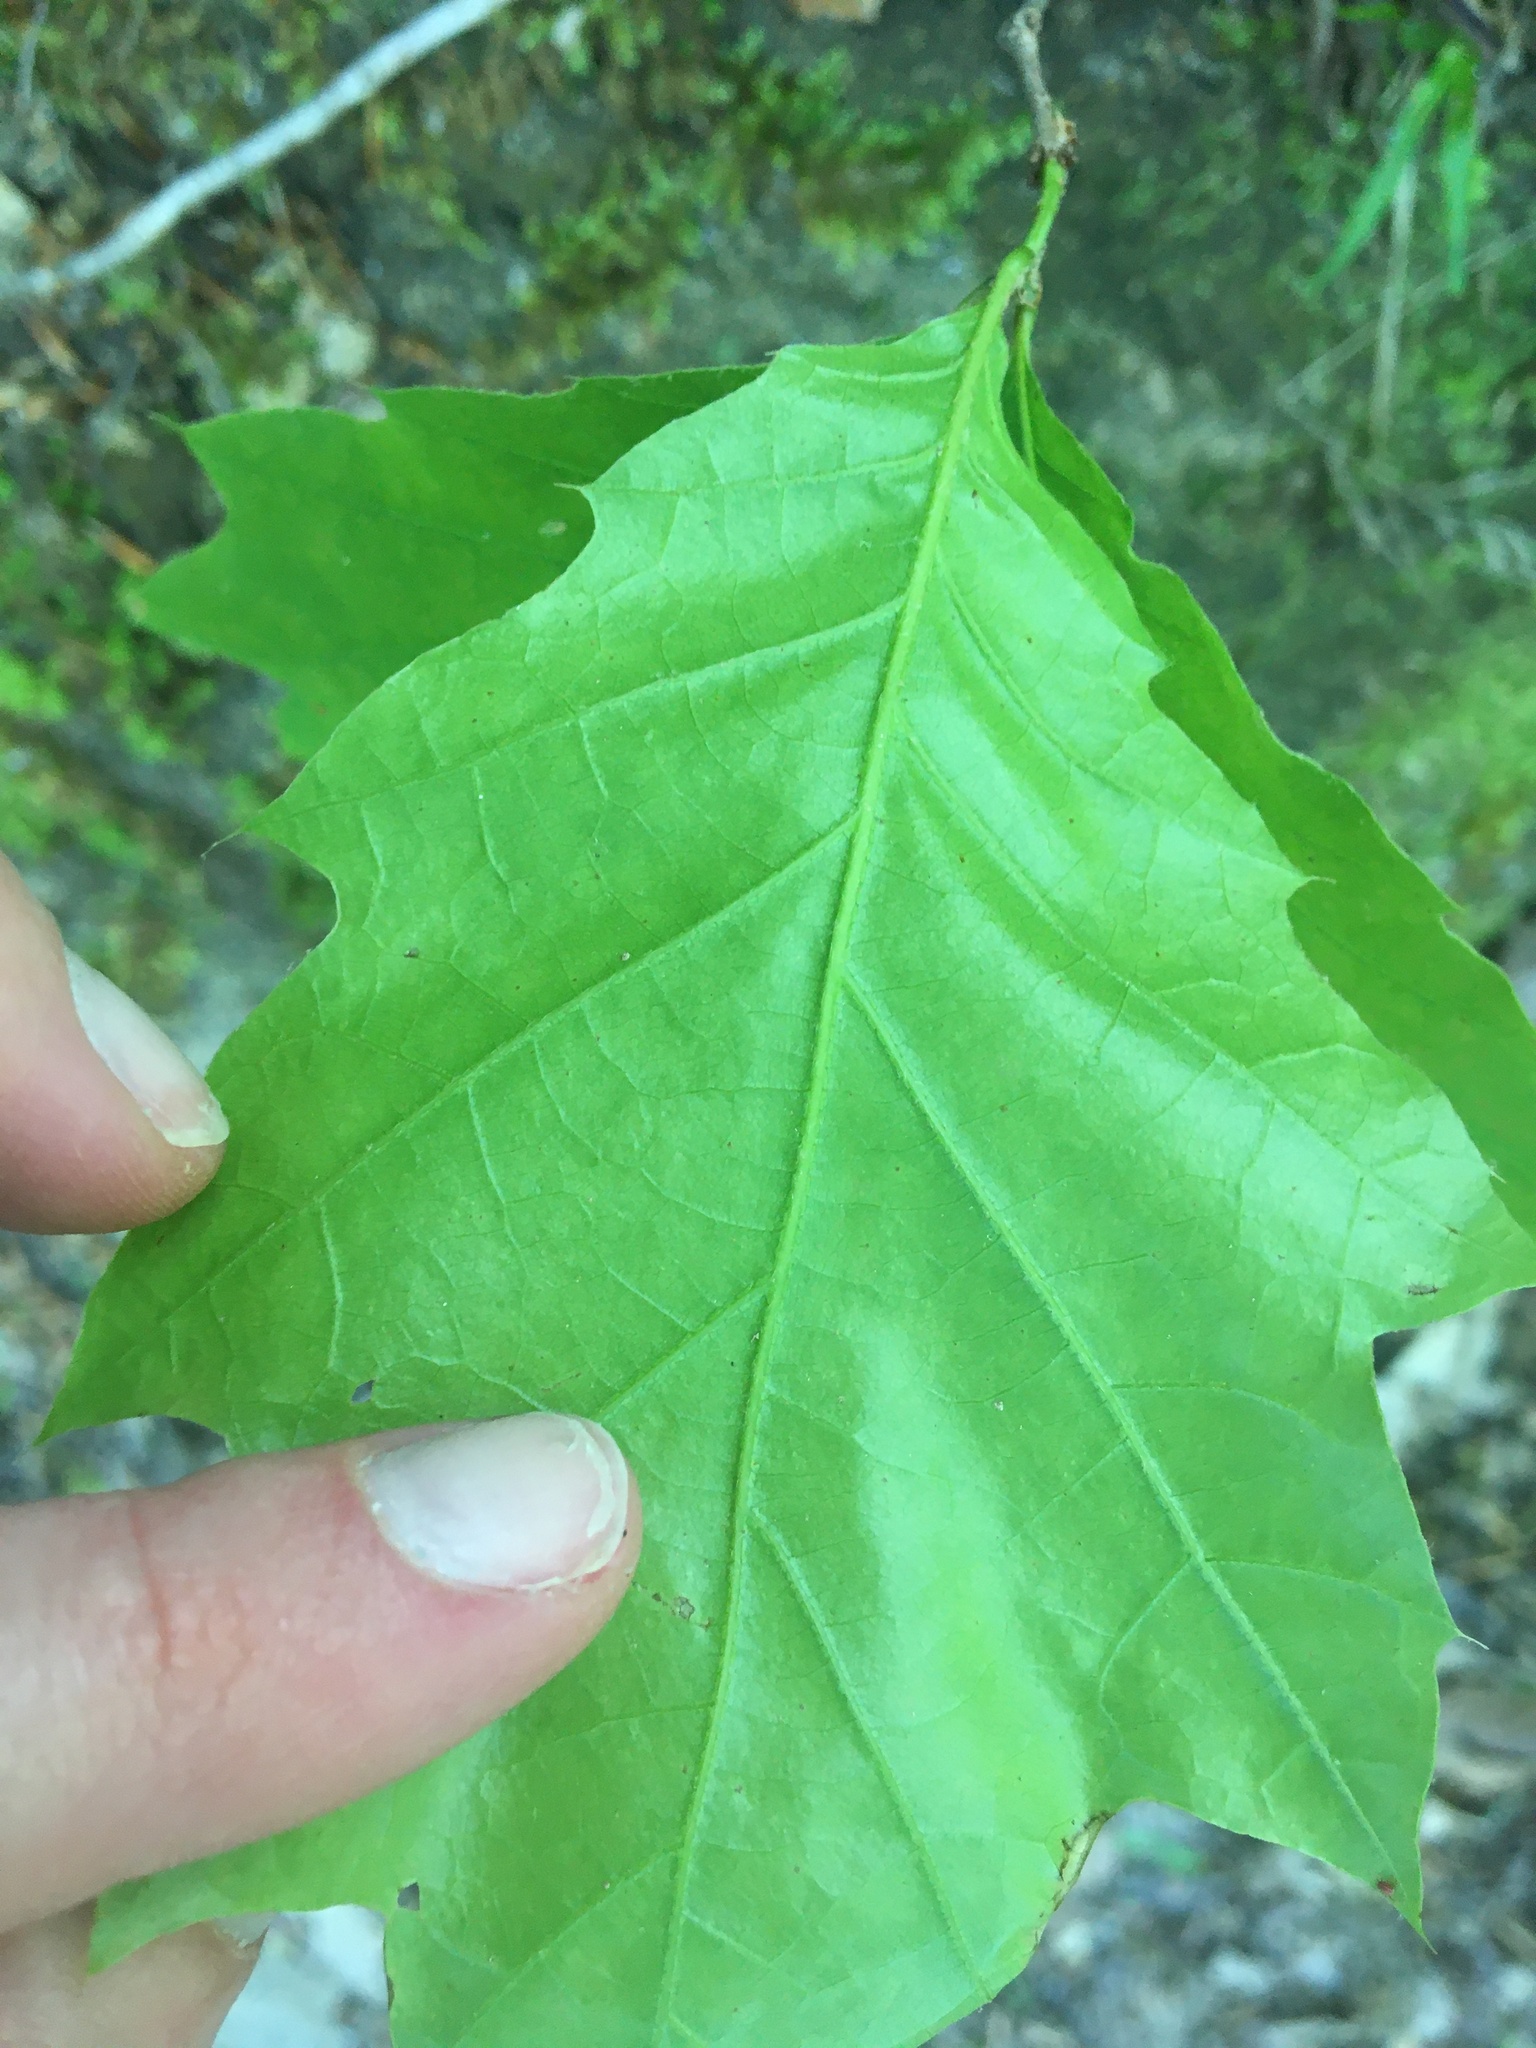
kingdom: Plantae
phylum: Tracheophyta
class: Magnoliopsida
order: Fagales
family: Fagaceae
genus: Quercus
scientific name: Quercus rubra
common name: Red oak
